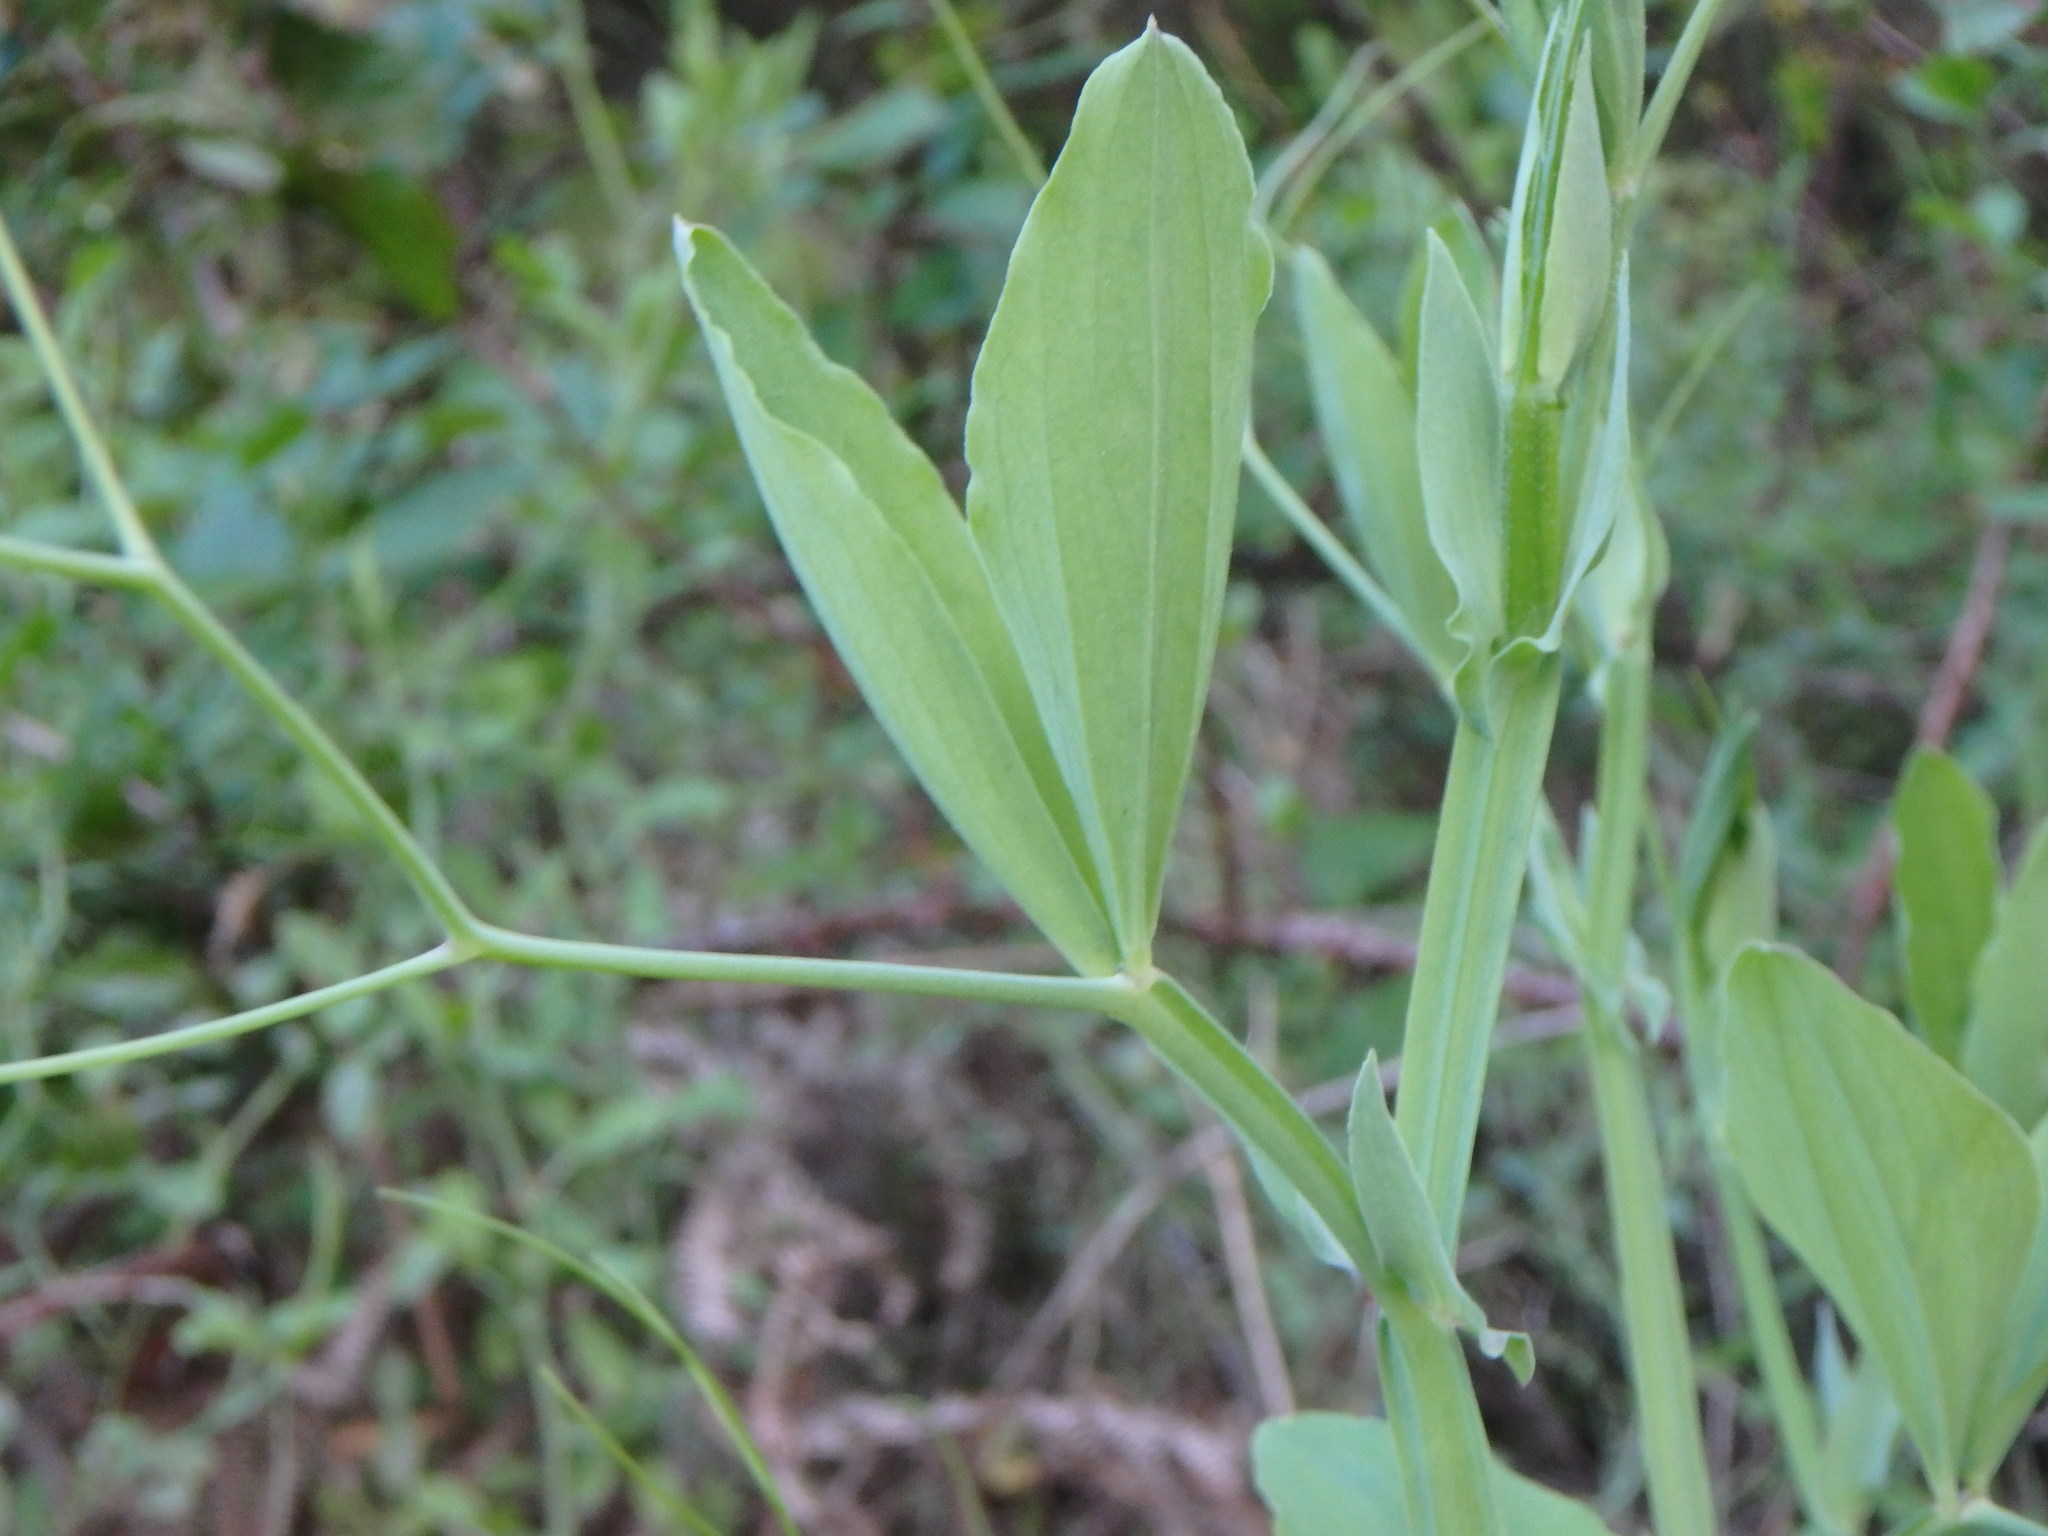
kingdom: Plantae
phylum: Tracheophyta
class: Magnoliopsida
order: Fabales
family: Fabaceae
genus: Lathyrus
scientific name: Lathyrus tingitanus
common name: Tangier pea
